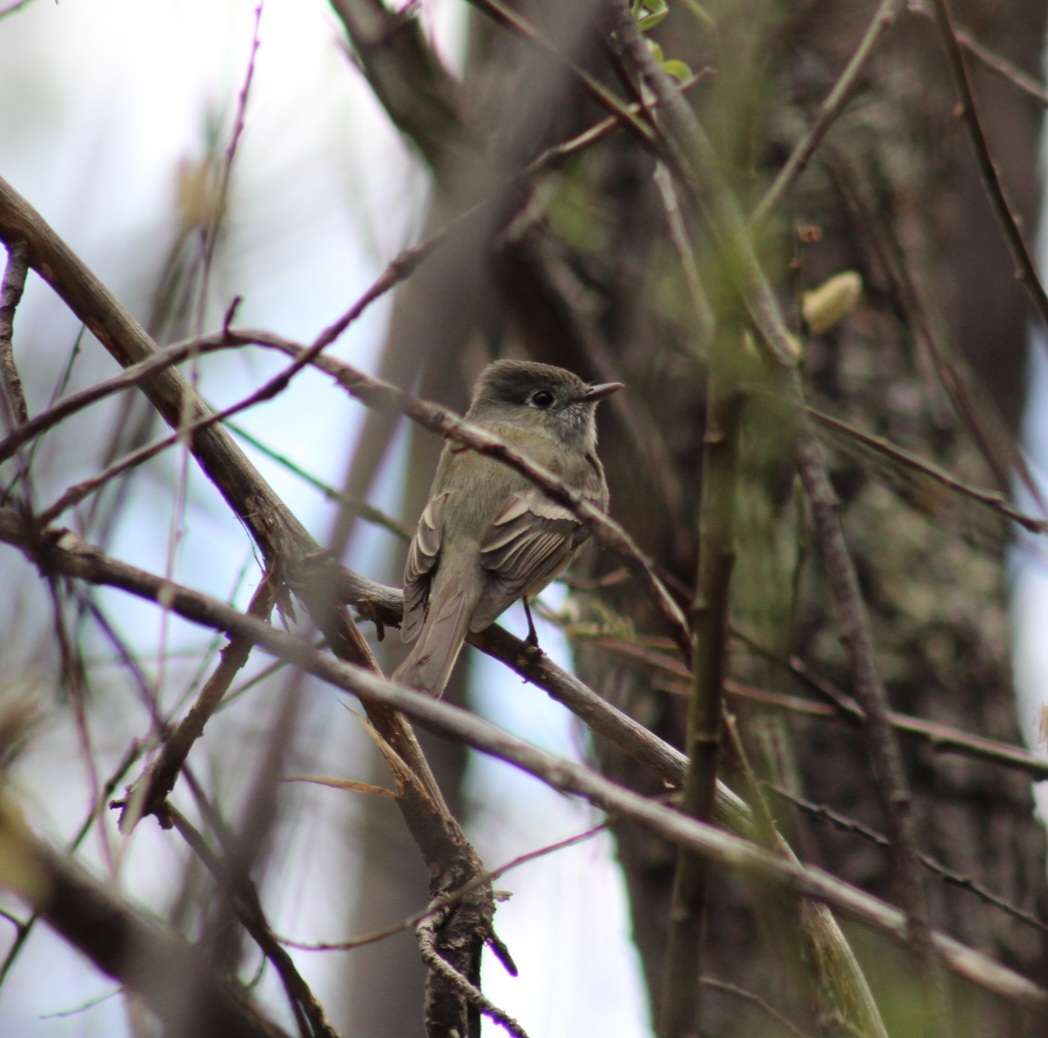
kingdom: Animalia
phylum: Chordata
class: Aves
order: Passeriformes
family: Tyrannidae
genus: Empidonax
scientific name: Empidonax hammondii
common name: Hammond's flycatcher
